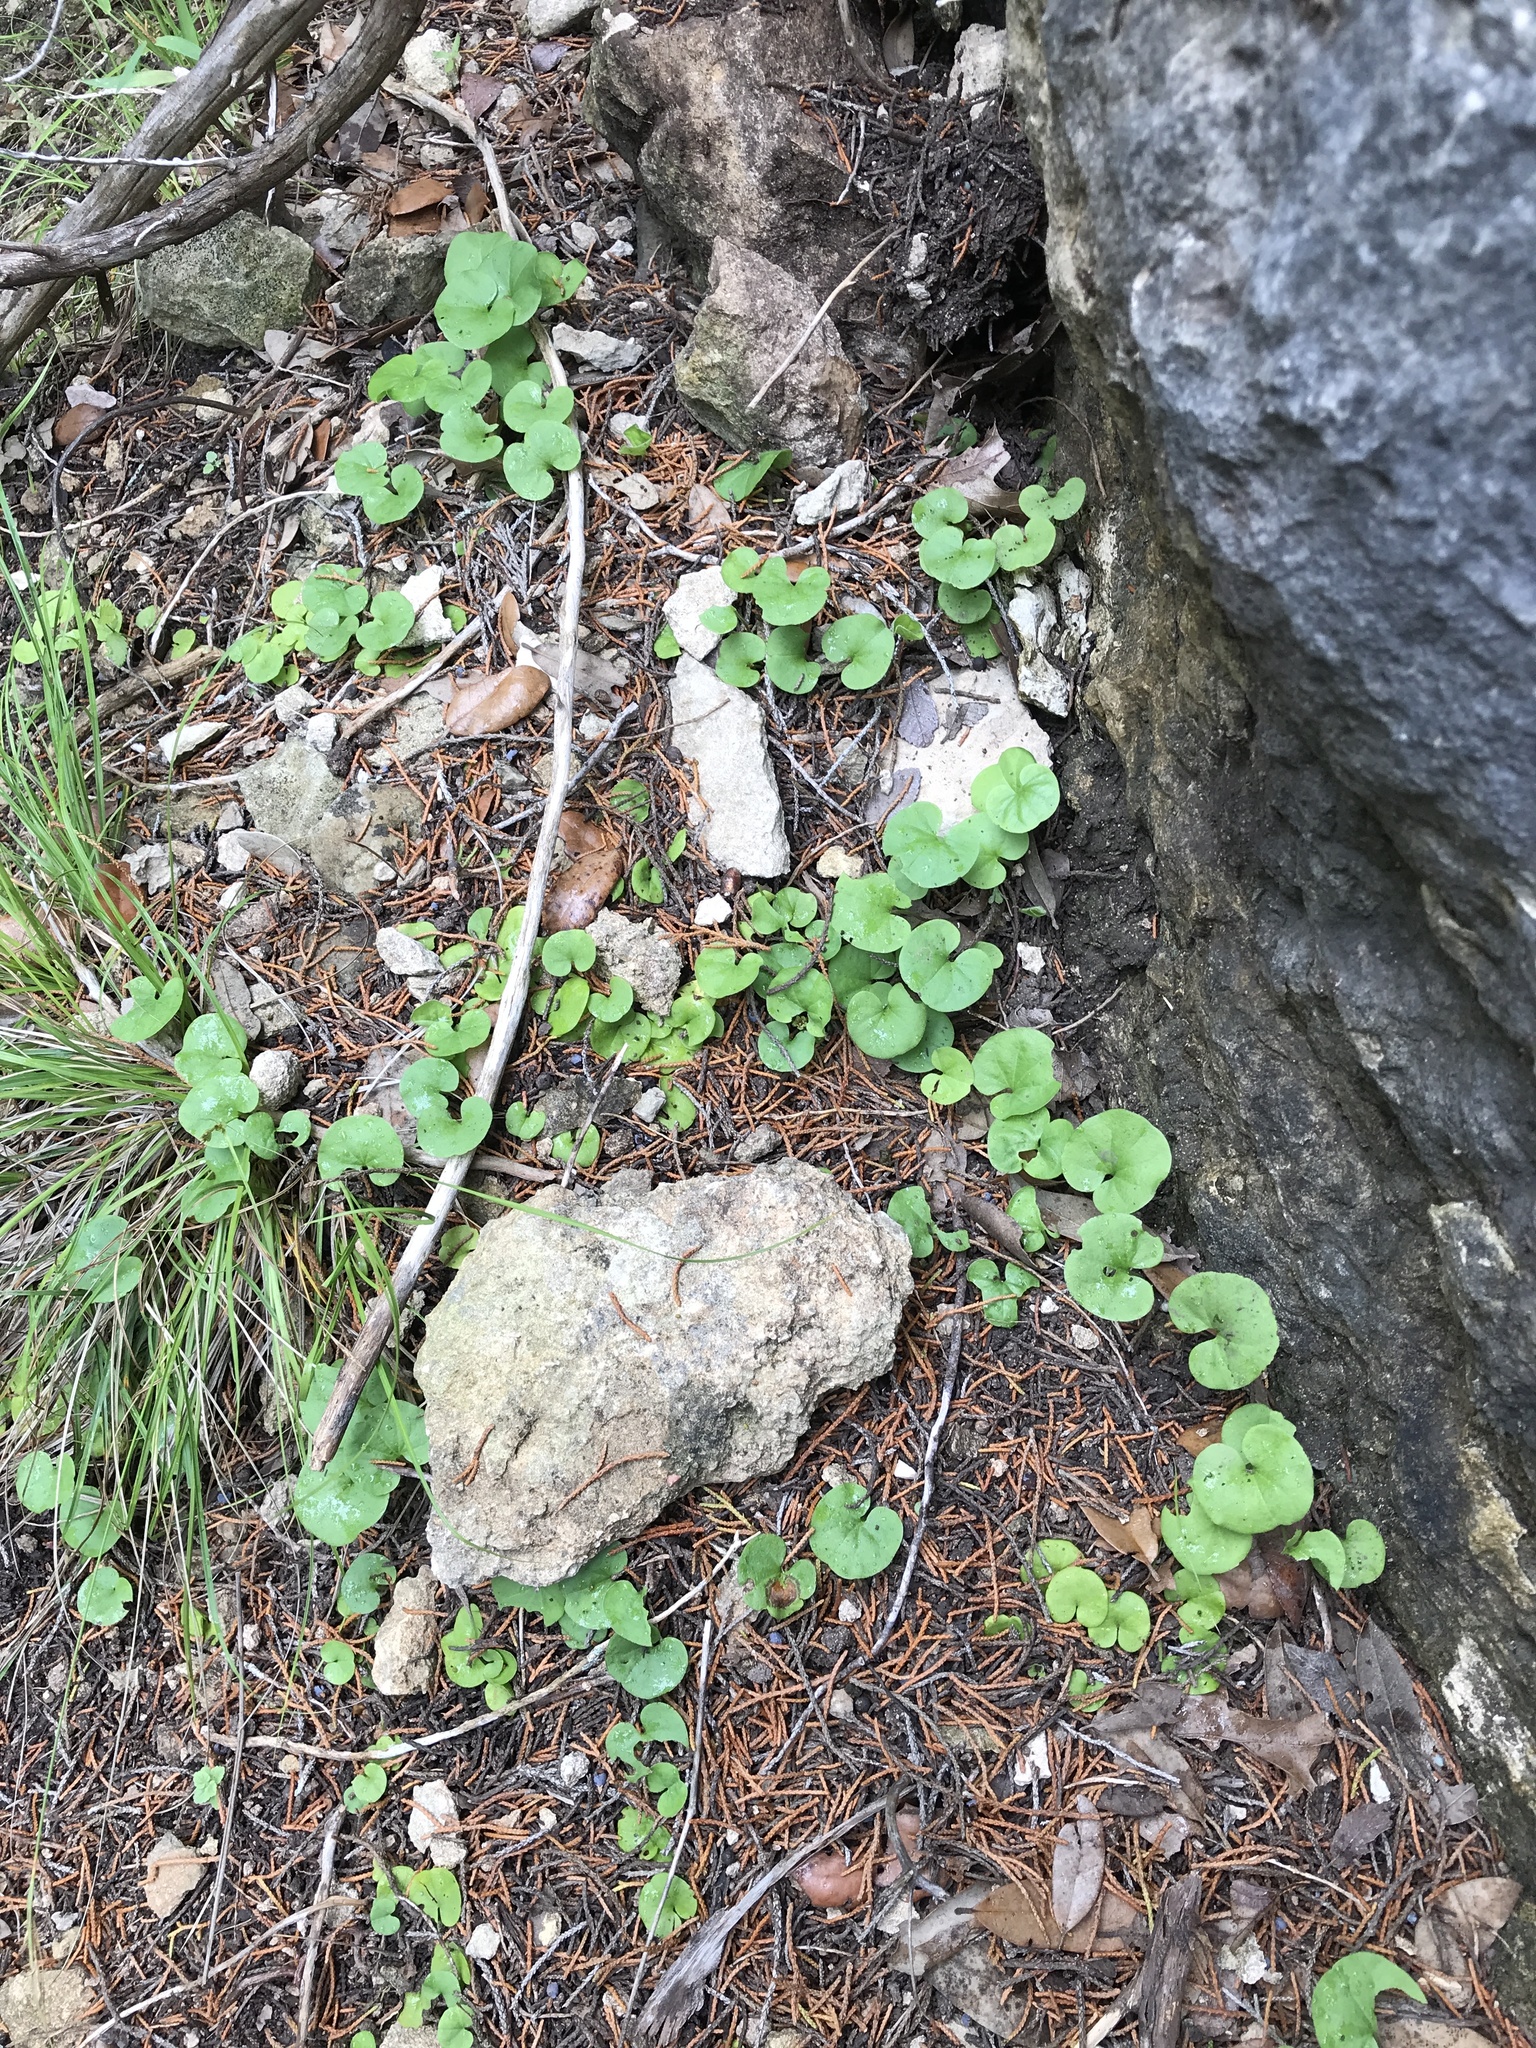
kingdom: Plantae
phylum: Tracheophyta
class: Magnoliopsida
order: Solanales
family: Convolvulaceae
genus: Dichondra
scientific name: Dichondra carolinensis
